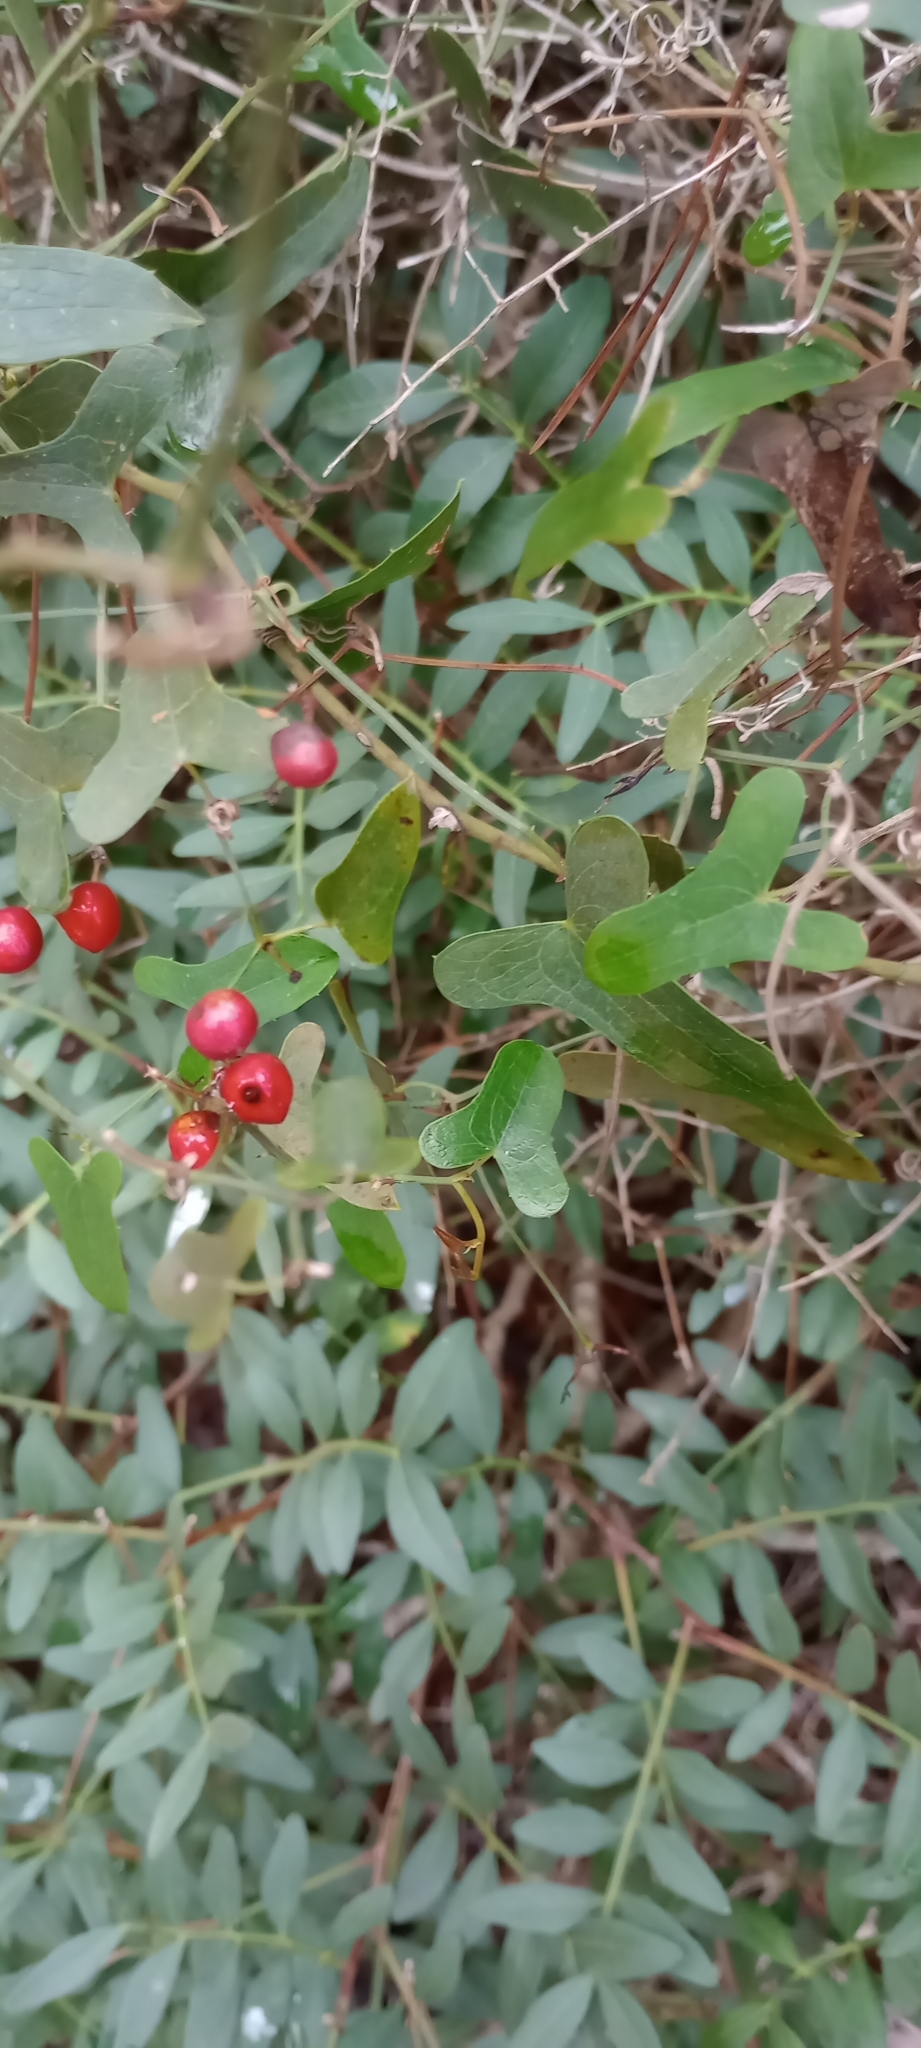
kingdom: Plantae
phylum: Tracheophyta
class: Liliopsida
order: Liliales
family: Smilacaceae
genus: Smilax
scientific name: Smilax aspera
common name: Common smilax
